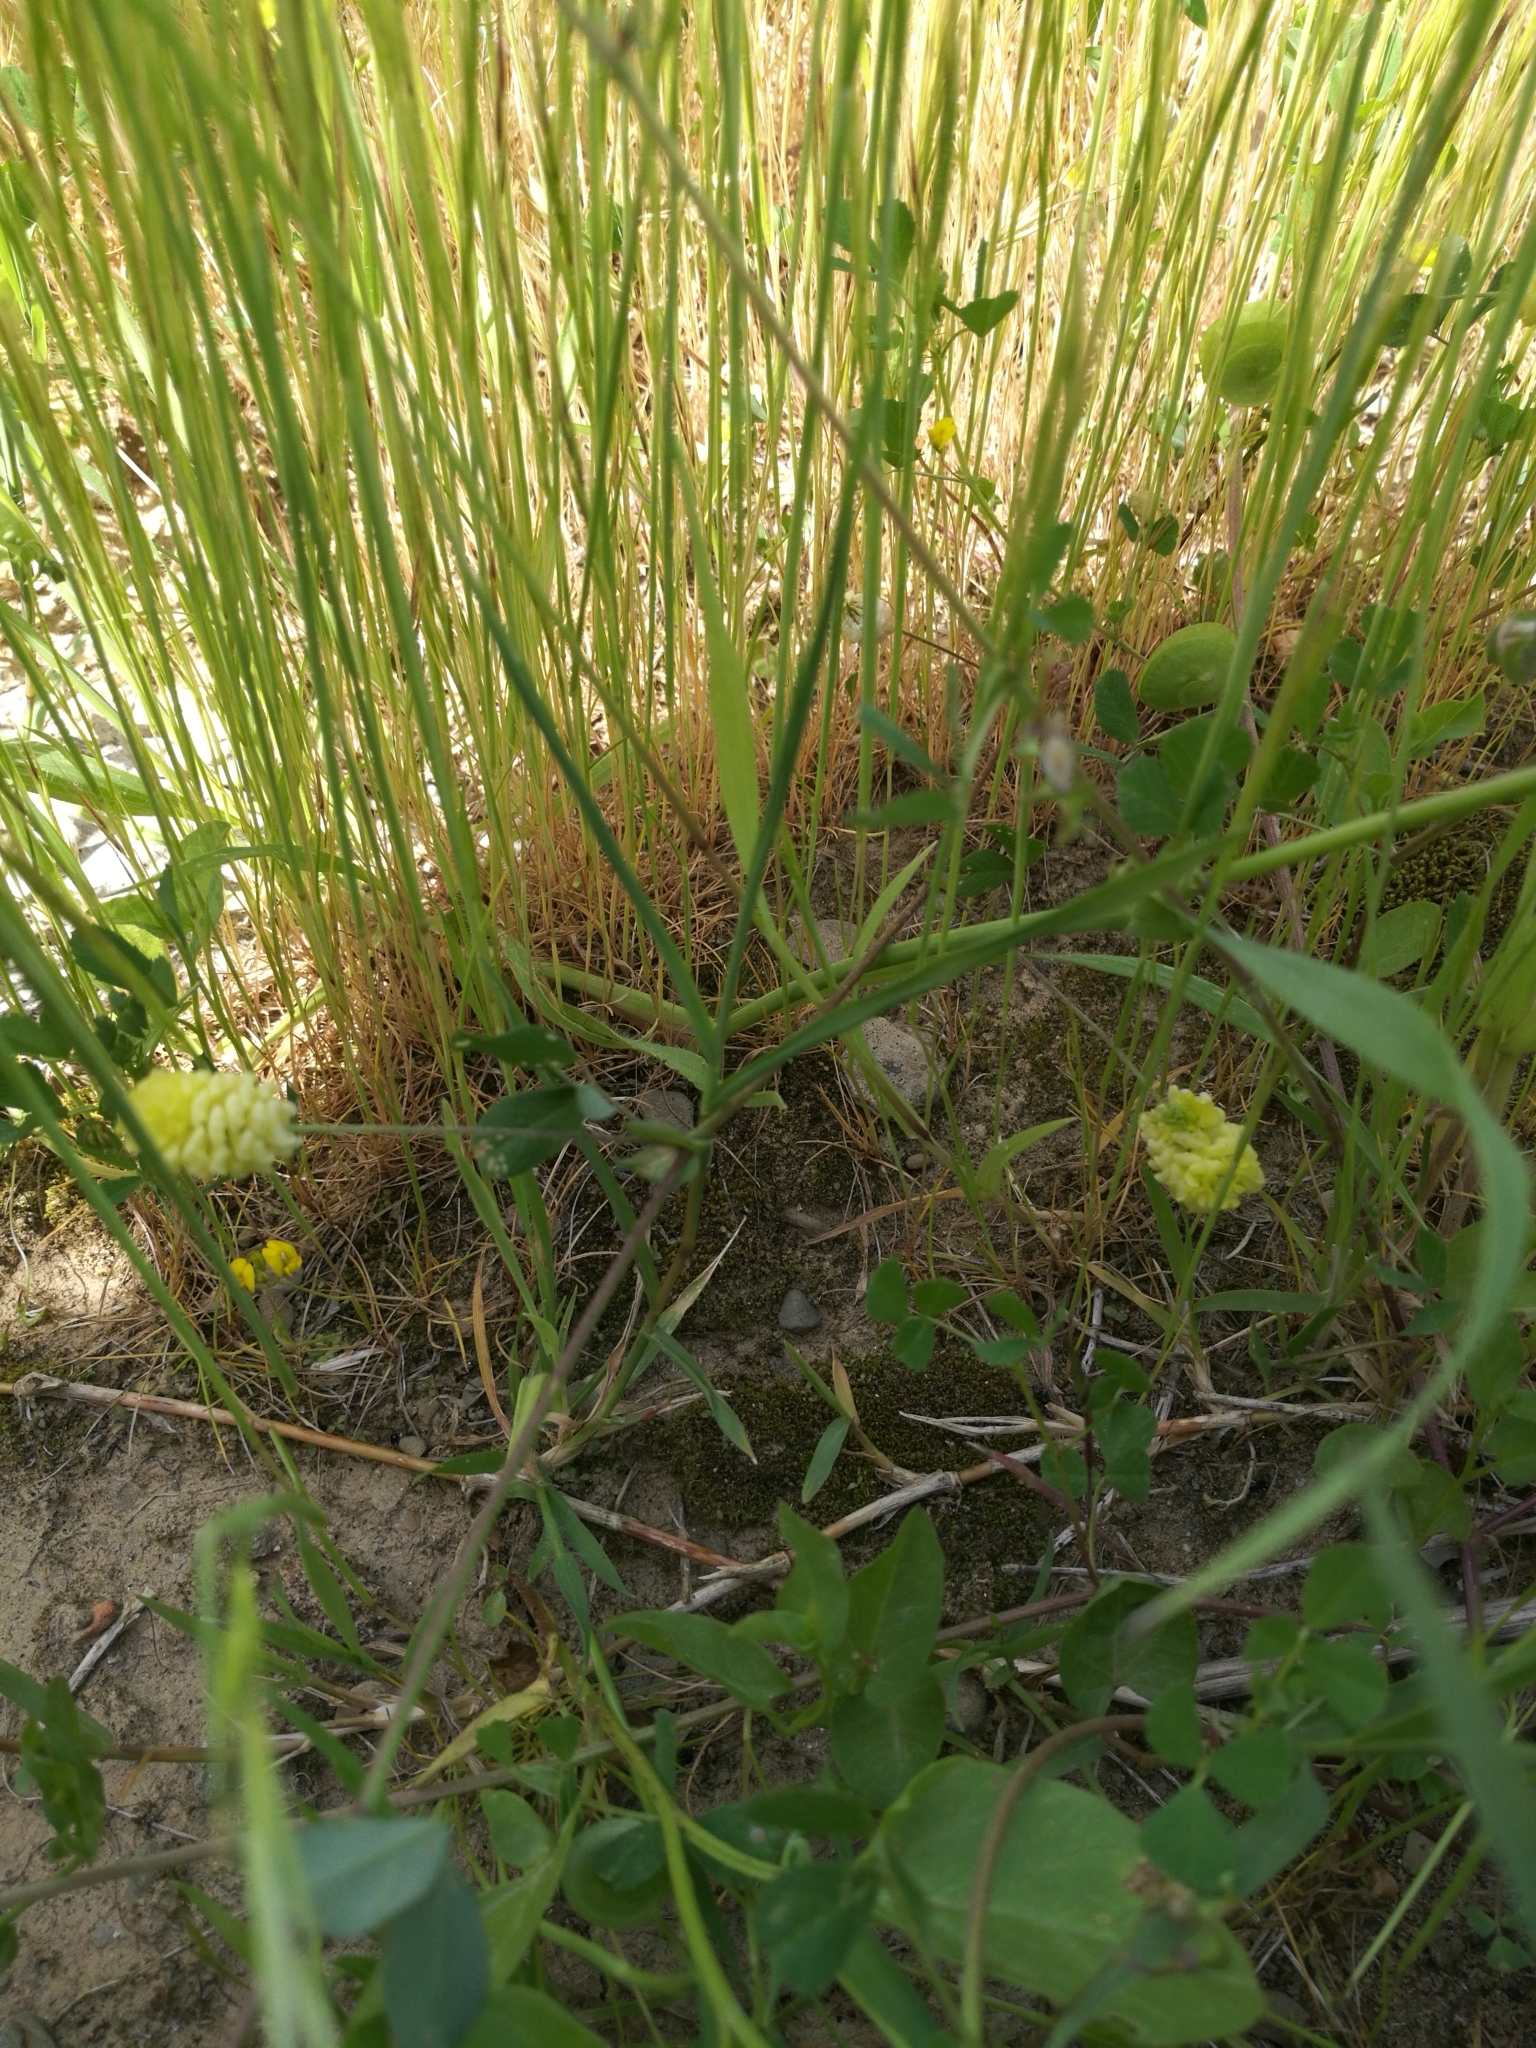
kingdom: Plantae
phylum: Tracheophyta
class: Magnoliopsida
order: Fabales
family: Fabaceae
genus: Trifolium
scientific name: Trifolium campestre
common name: Field clover
